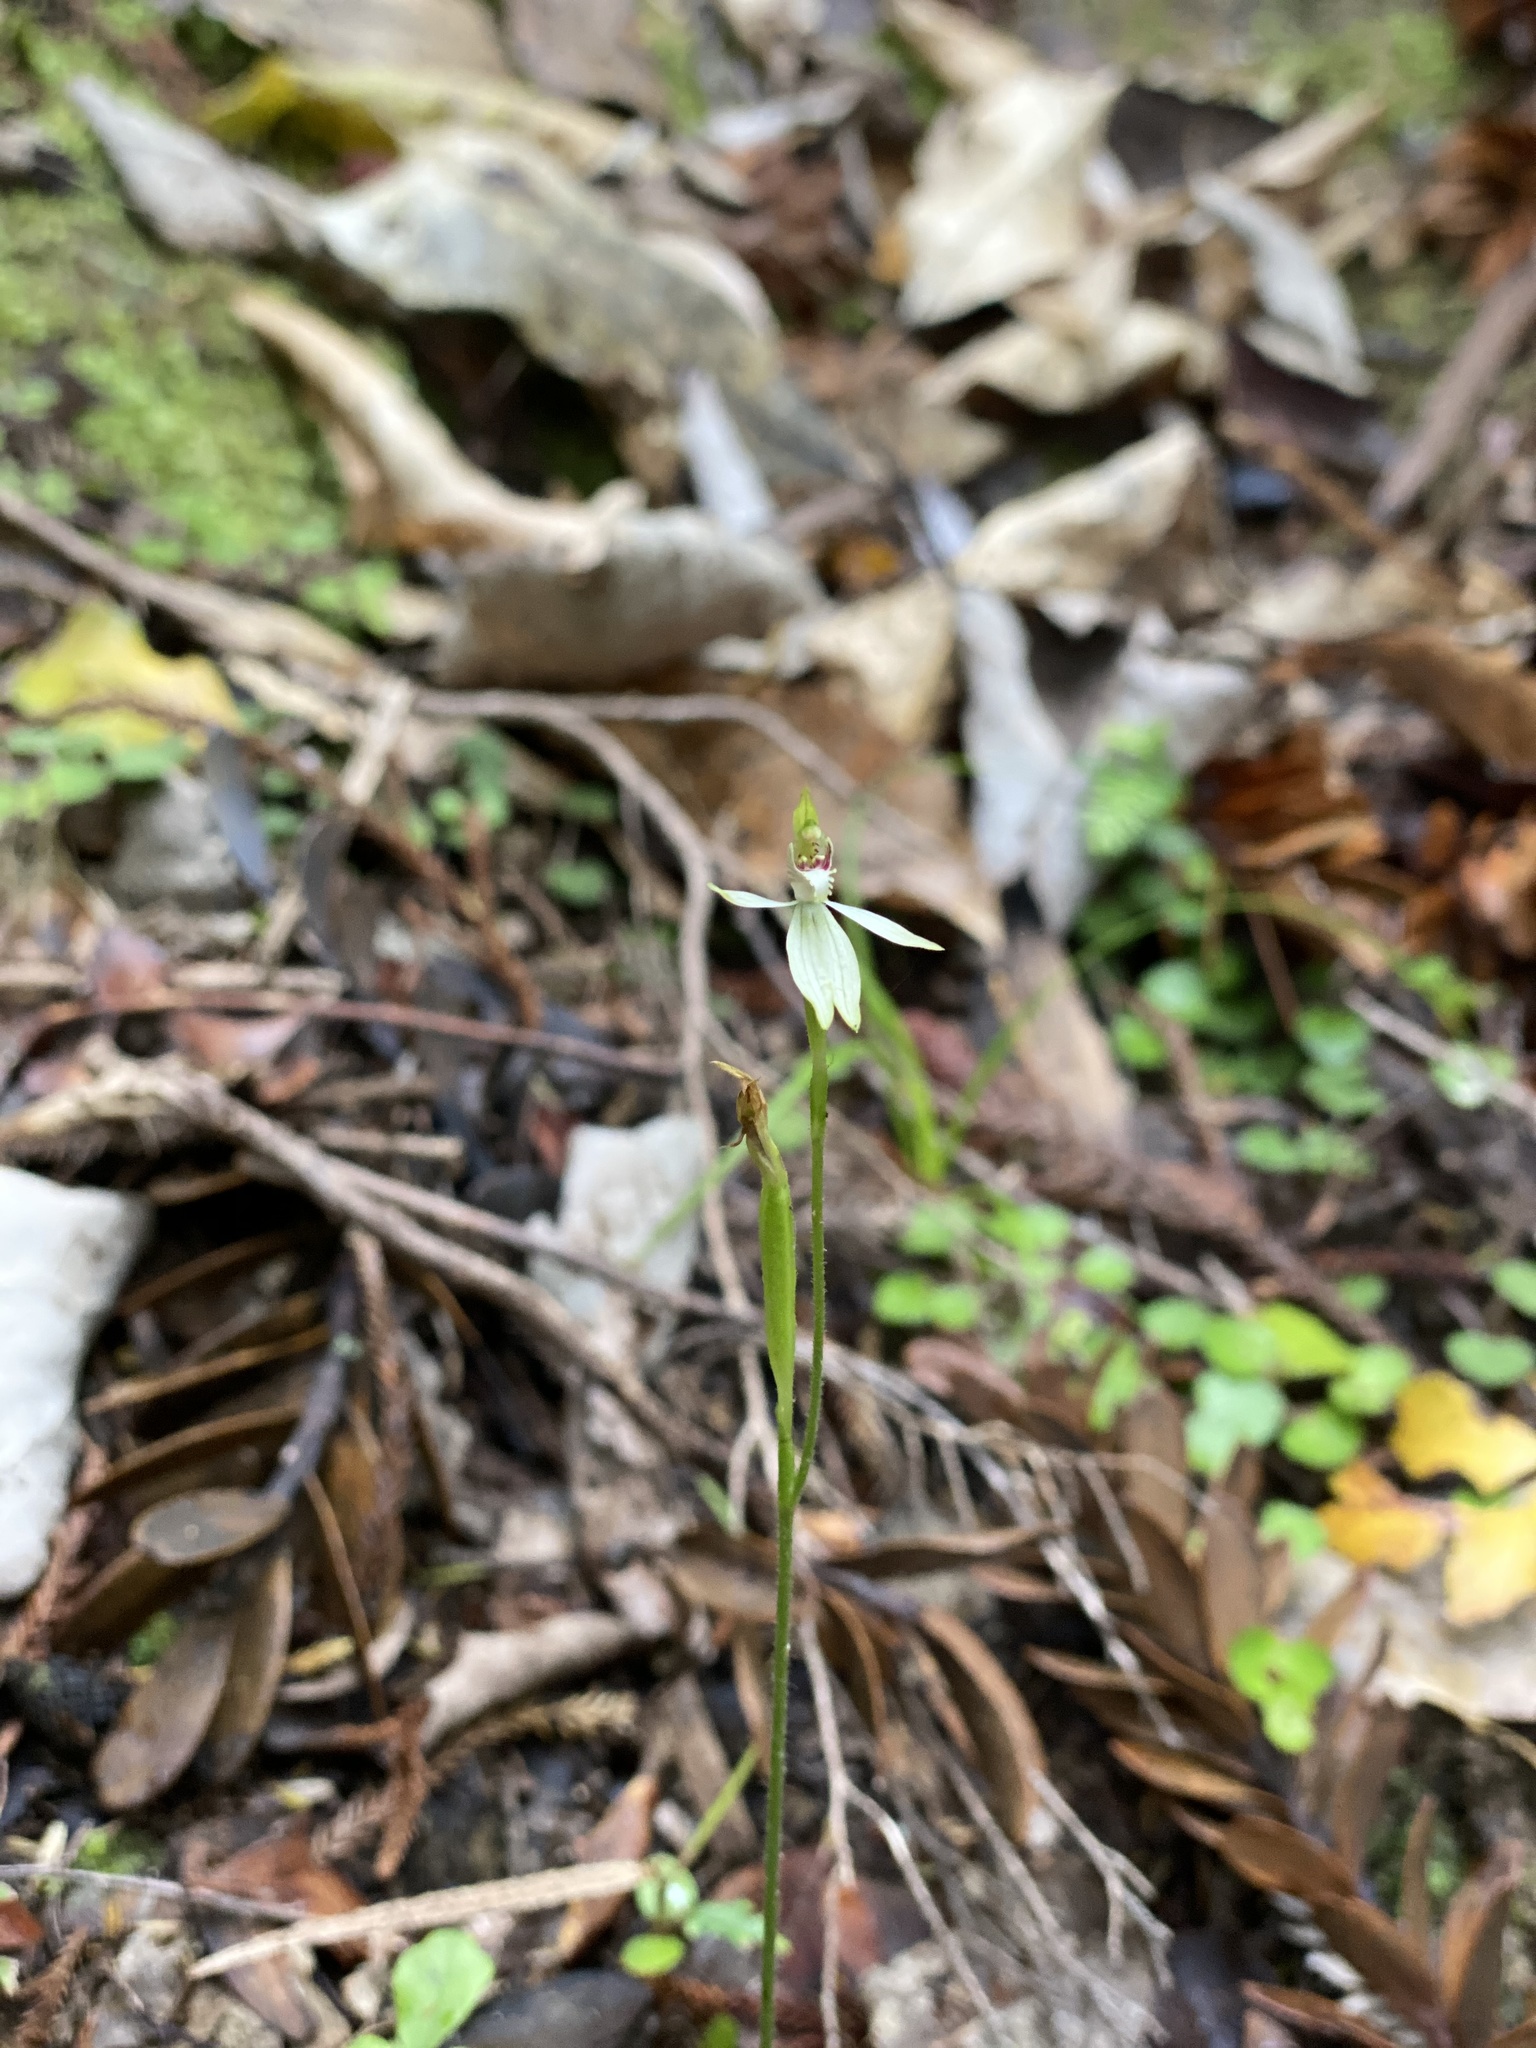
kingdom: Plantae
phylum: Tracheophyta
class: Liliopsida
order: Asparagales
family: Orchidaceae
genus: Caladenia
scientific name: Caladenia chlorostyla
